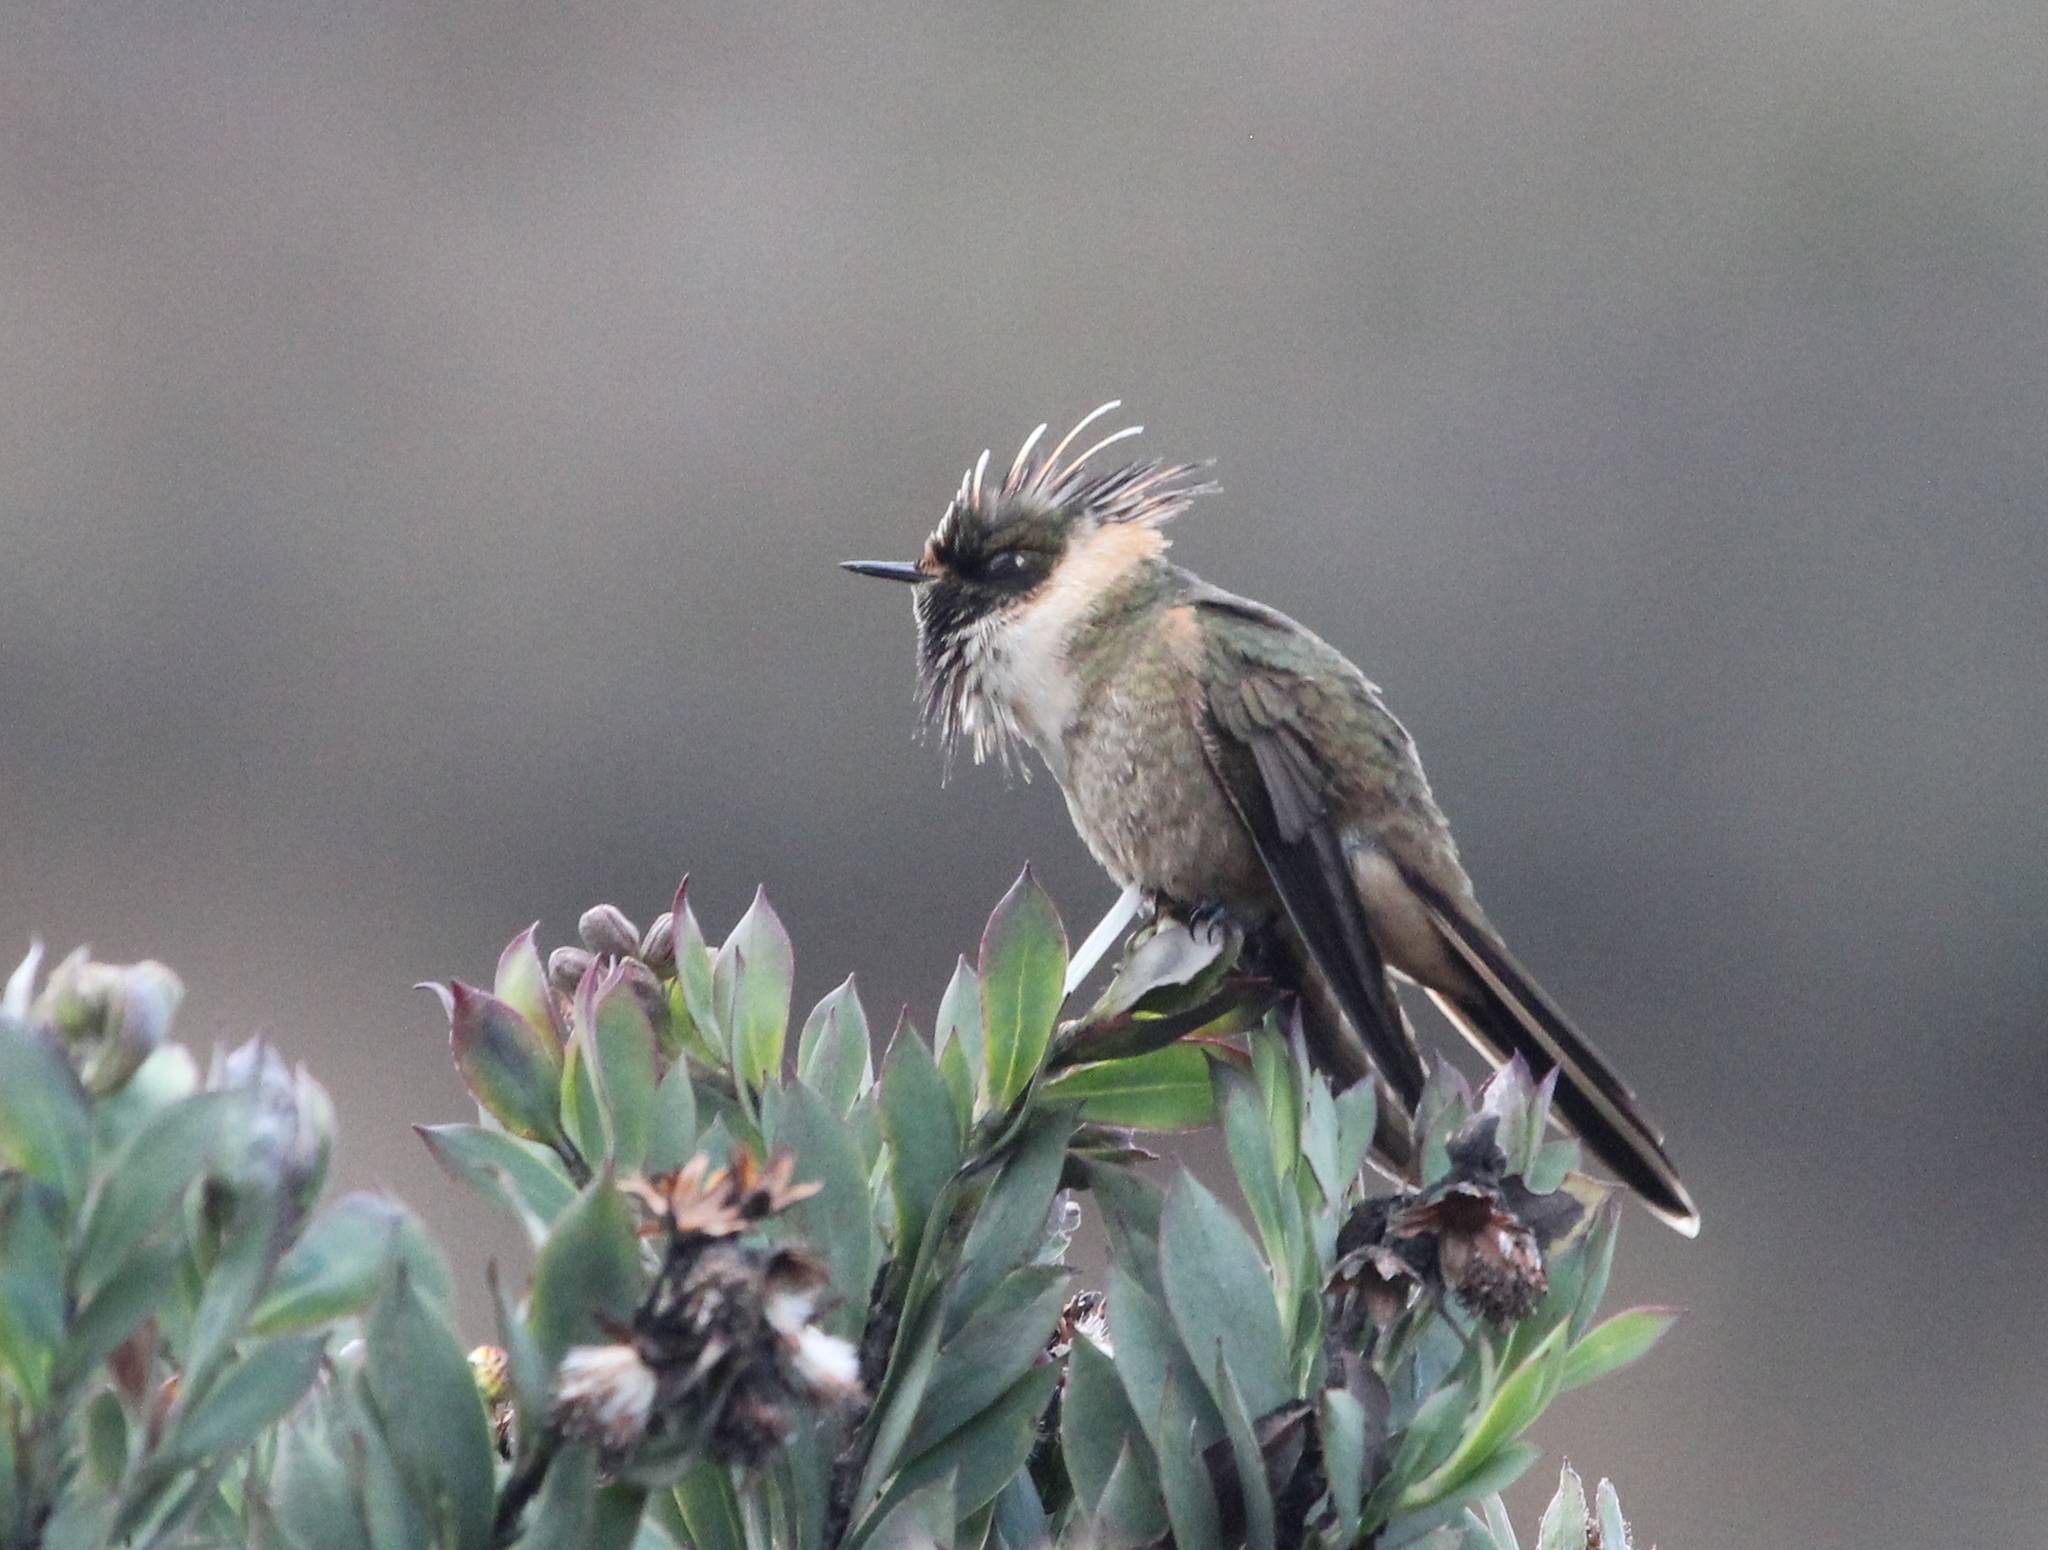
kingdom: Animalia
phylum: Chordata
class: Aves
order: Apodiformes
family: Trochilidae
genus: Oxypogon
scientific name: Oxypogon stuebelii
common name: Buffy helmetcrest
